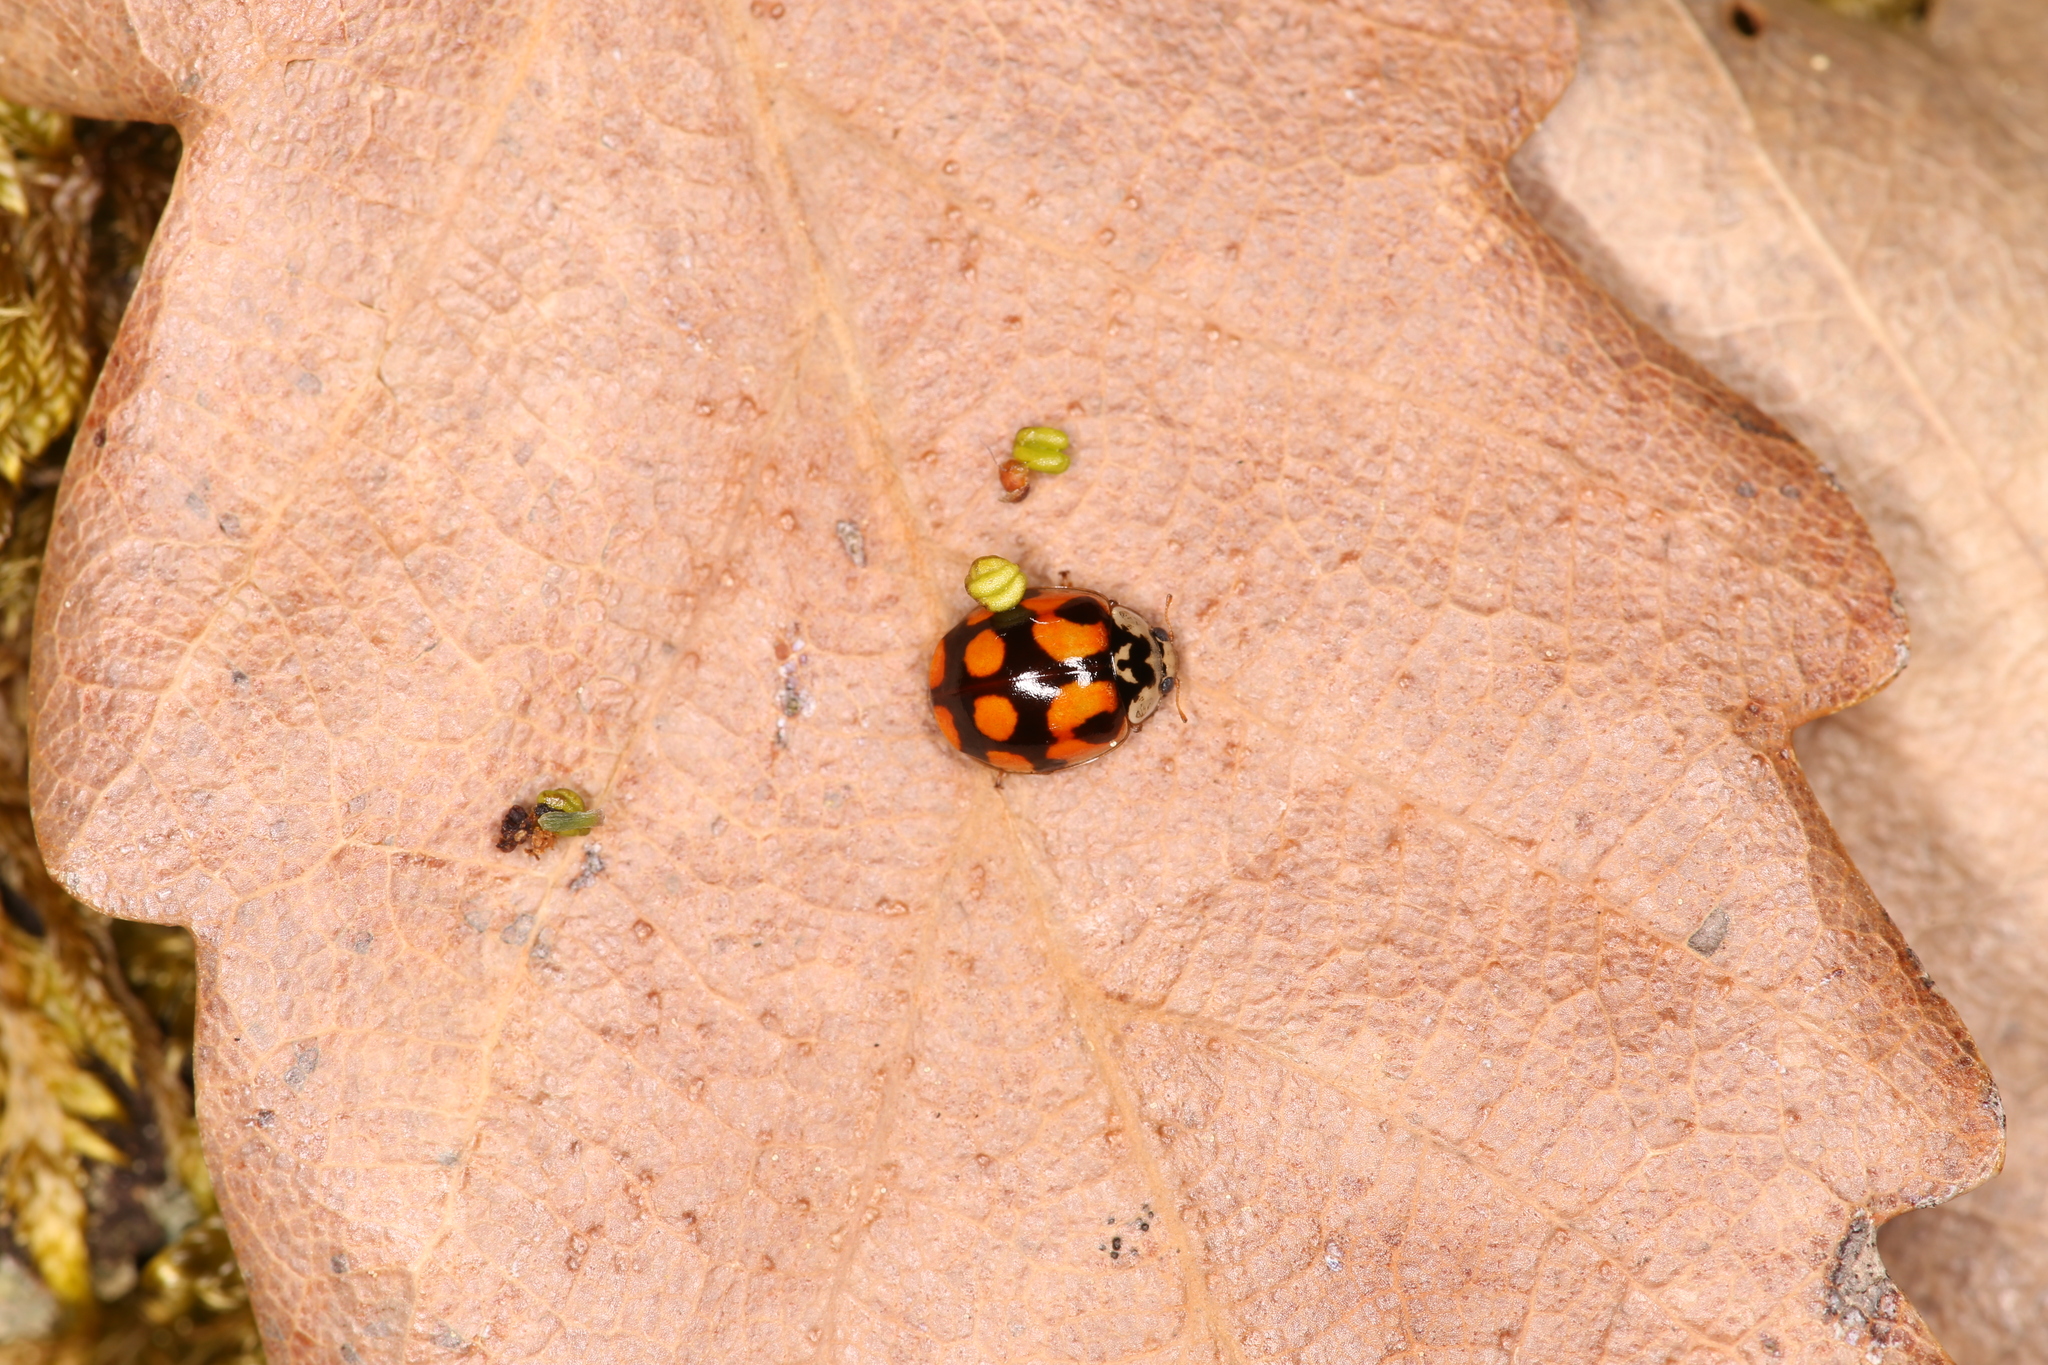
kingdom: Animalia
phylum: Arthropoda
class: Insecta
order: Coleoptera
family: Coccinellidae
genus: Adalia
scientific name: Adalia decempunctata
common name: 10-spot ladybird
